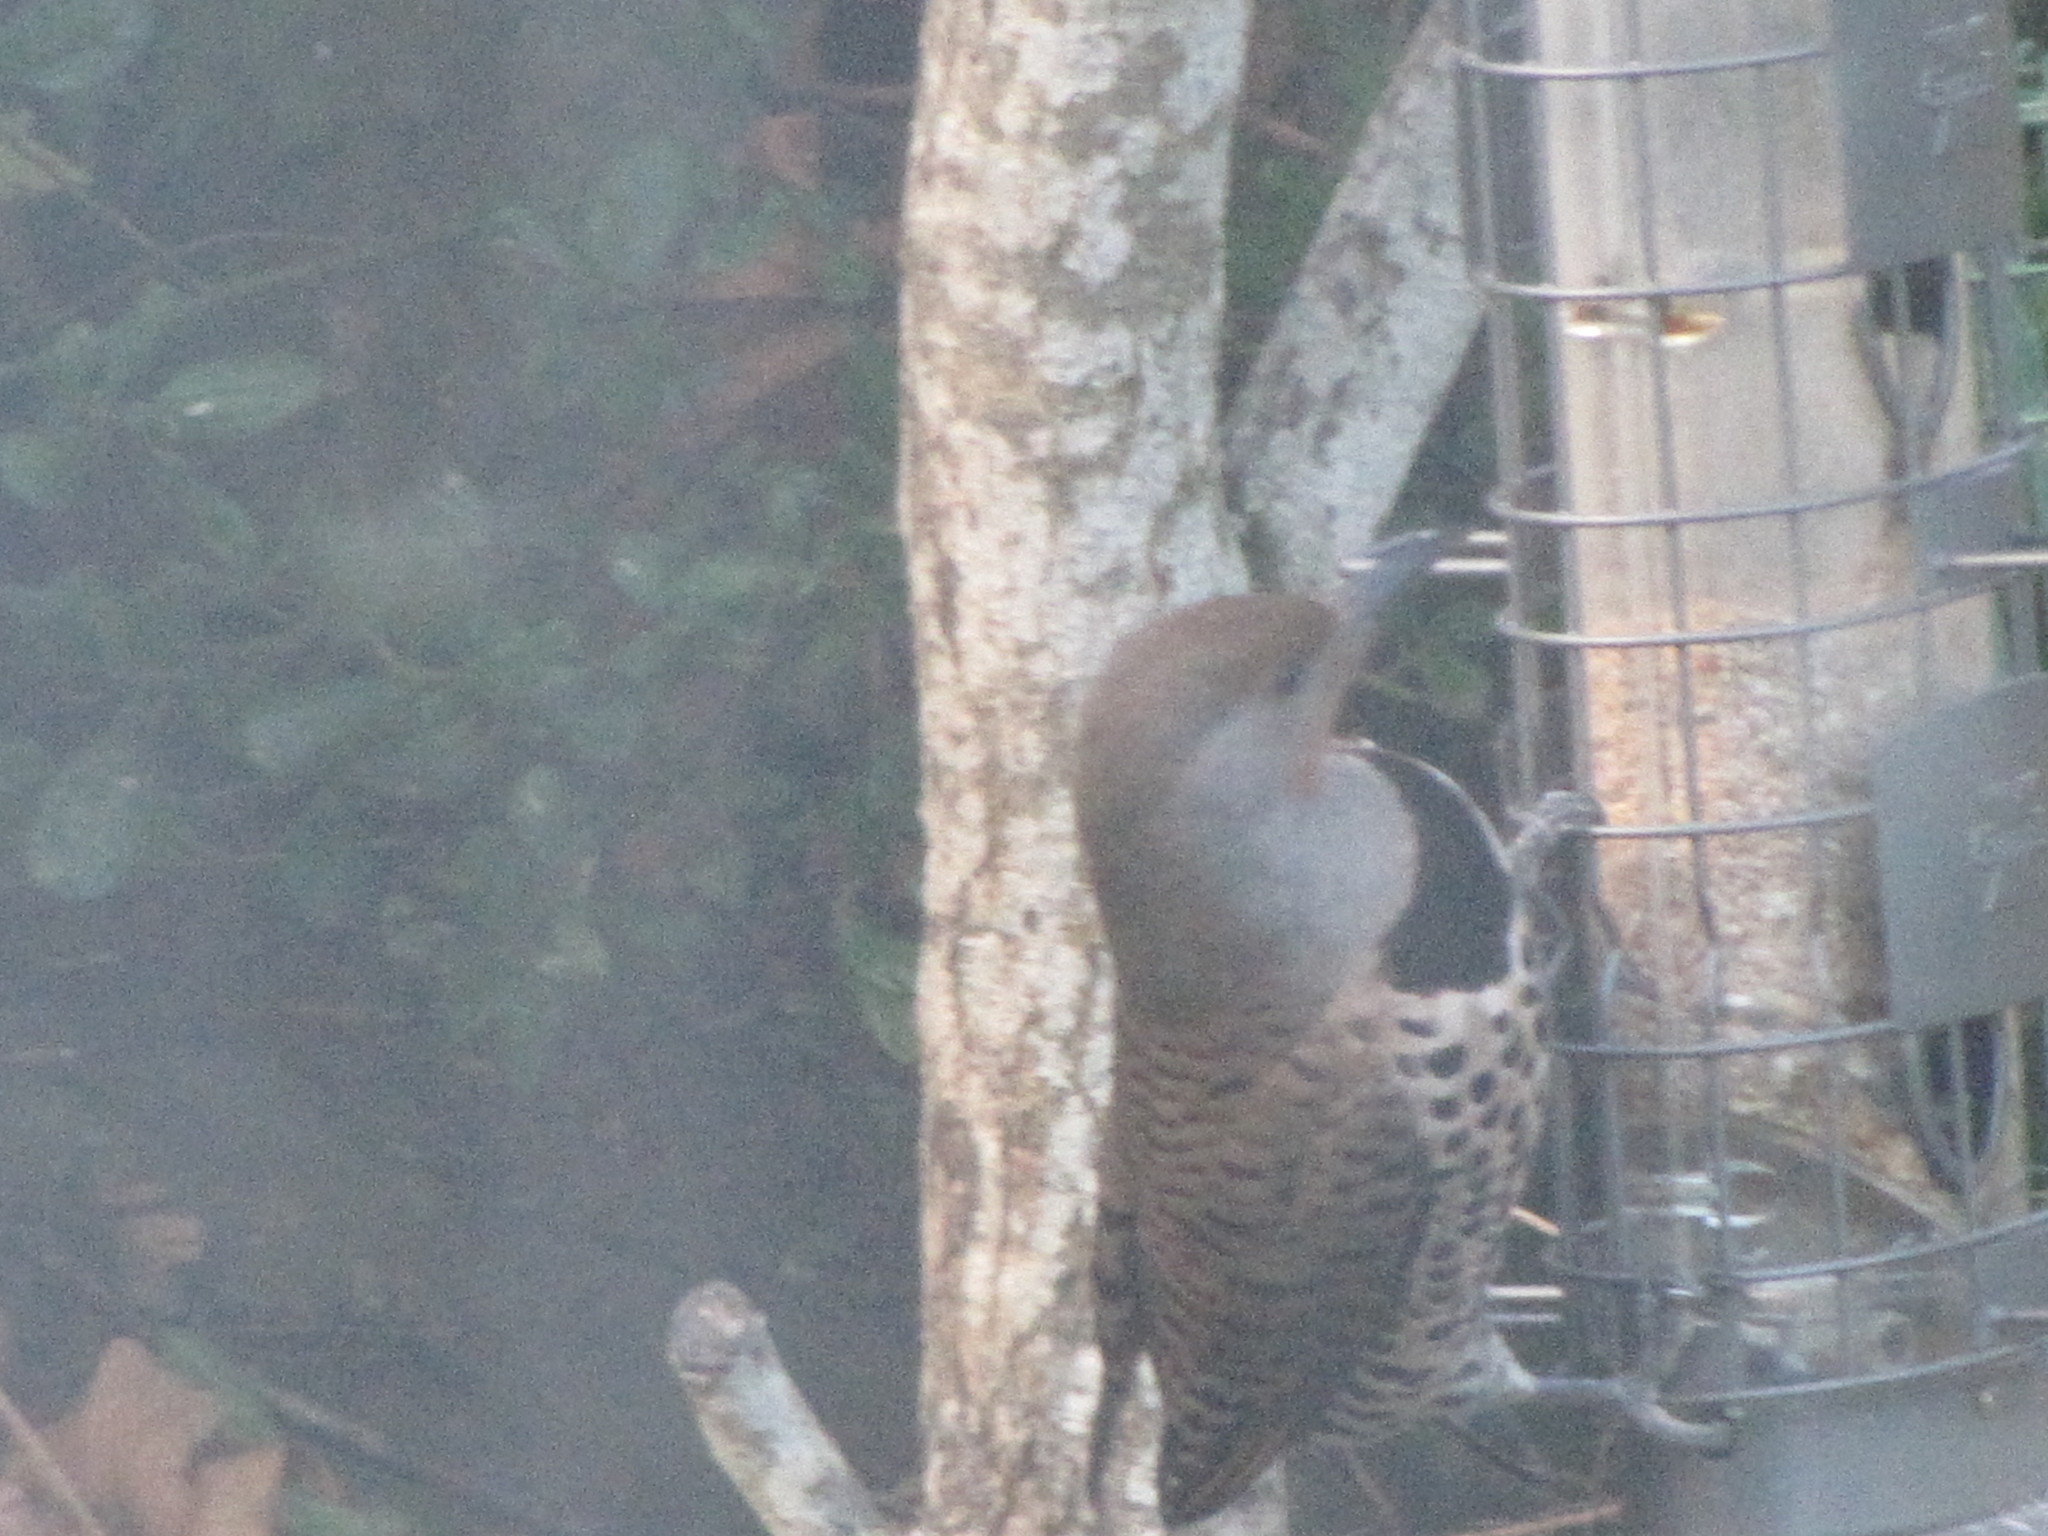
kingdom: Animalia
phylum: Chordata
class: Aves
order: Piciformes
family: Picidae
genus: Colaptes
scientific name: Colaptes auratus
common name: Northern flicker
